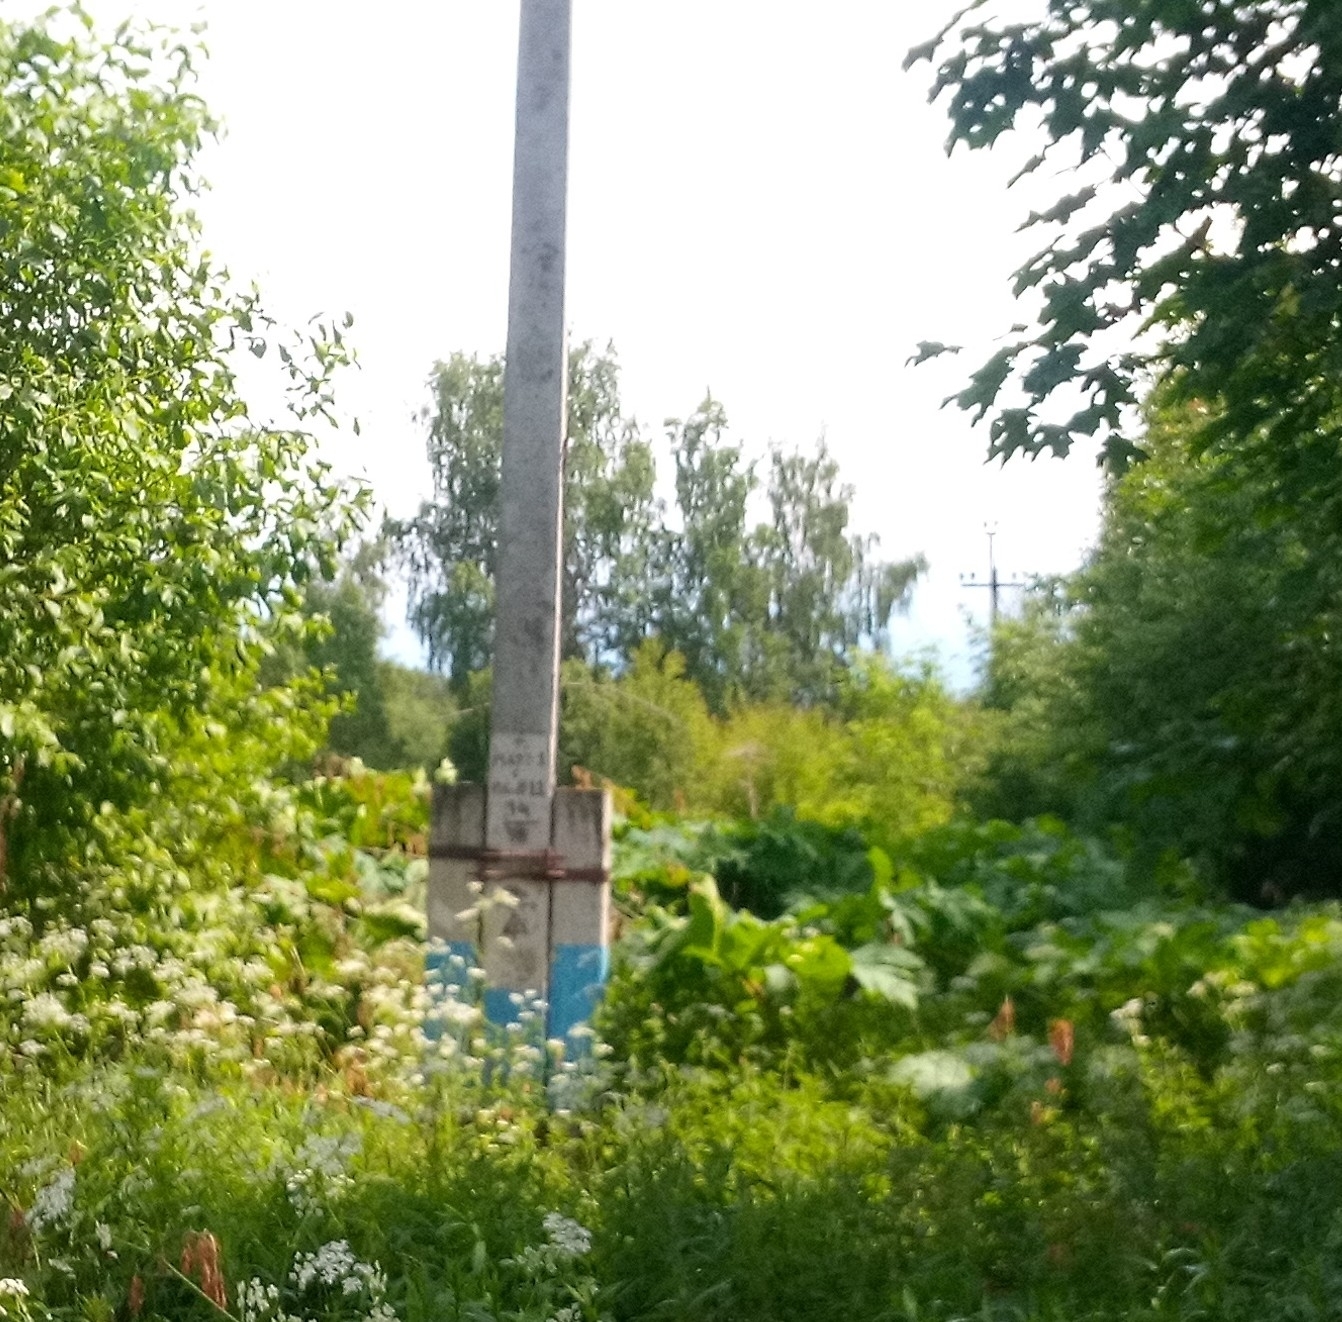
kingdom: Plantae
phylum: Tracheophyta
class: Magnoliopsida
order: Apiales
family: Apiaceae
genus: Heracleum
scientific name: Heracleum sosnowskyi
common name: Sosnowsky's hogweed
